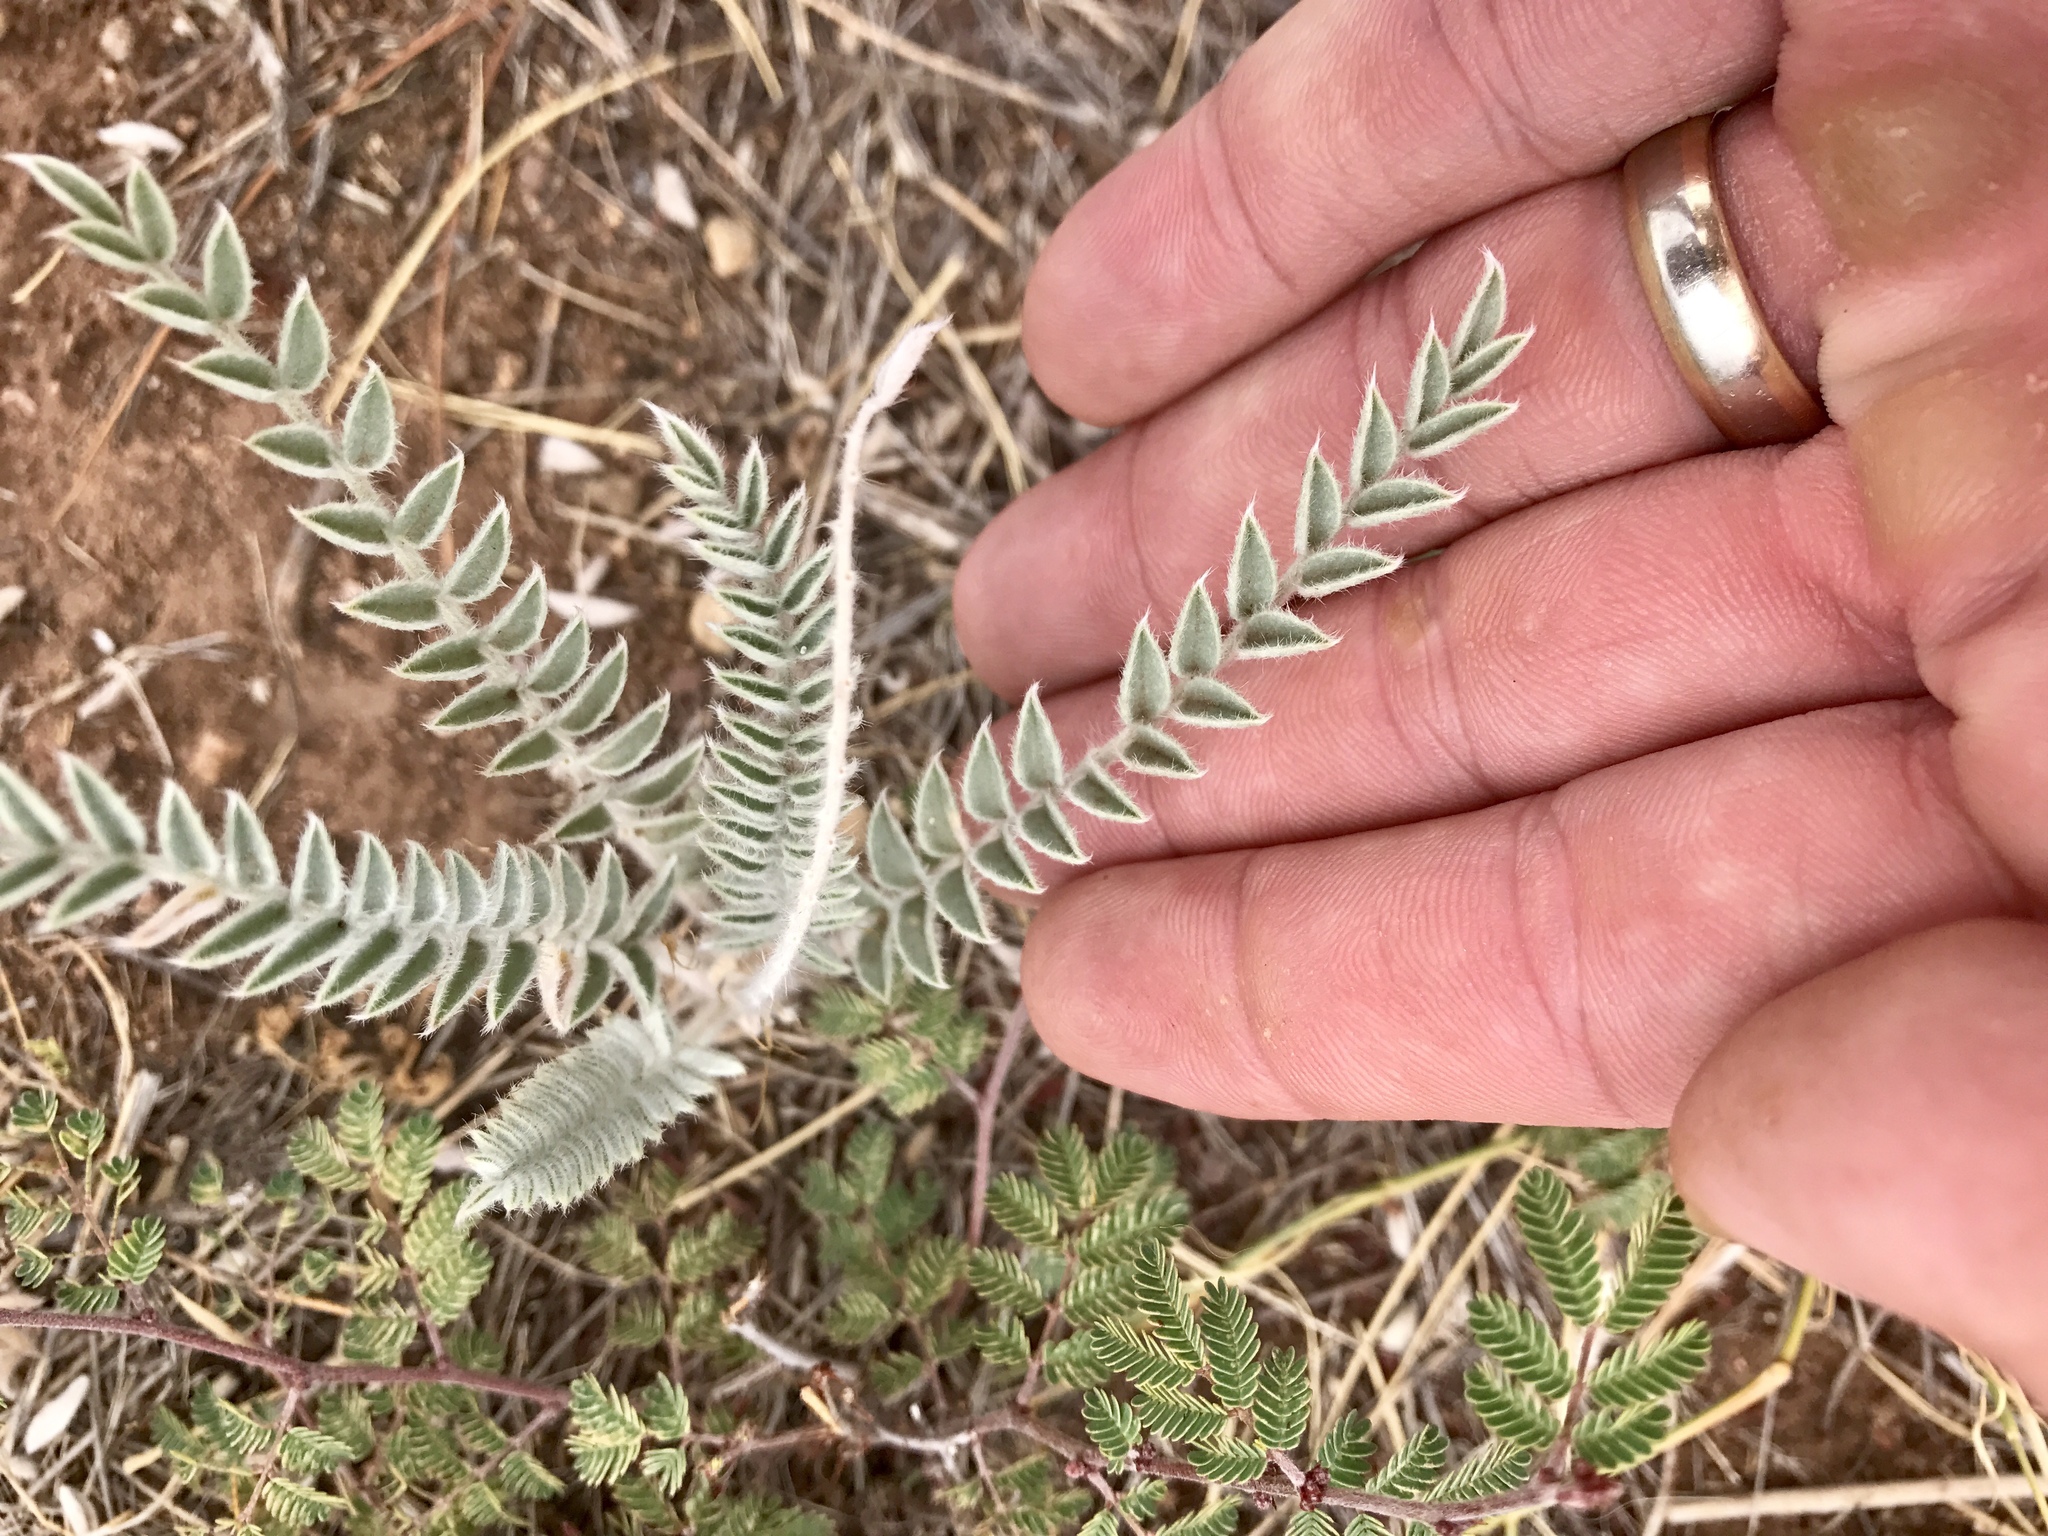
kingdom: Plantae
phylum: Tracheophyta
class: Magnoliopsida
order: Fabales
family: Fabaceae
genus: Astragalus
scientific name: Astragalus mollissimus
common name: Woolly locoweed
